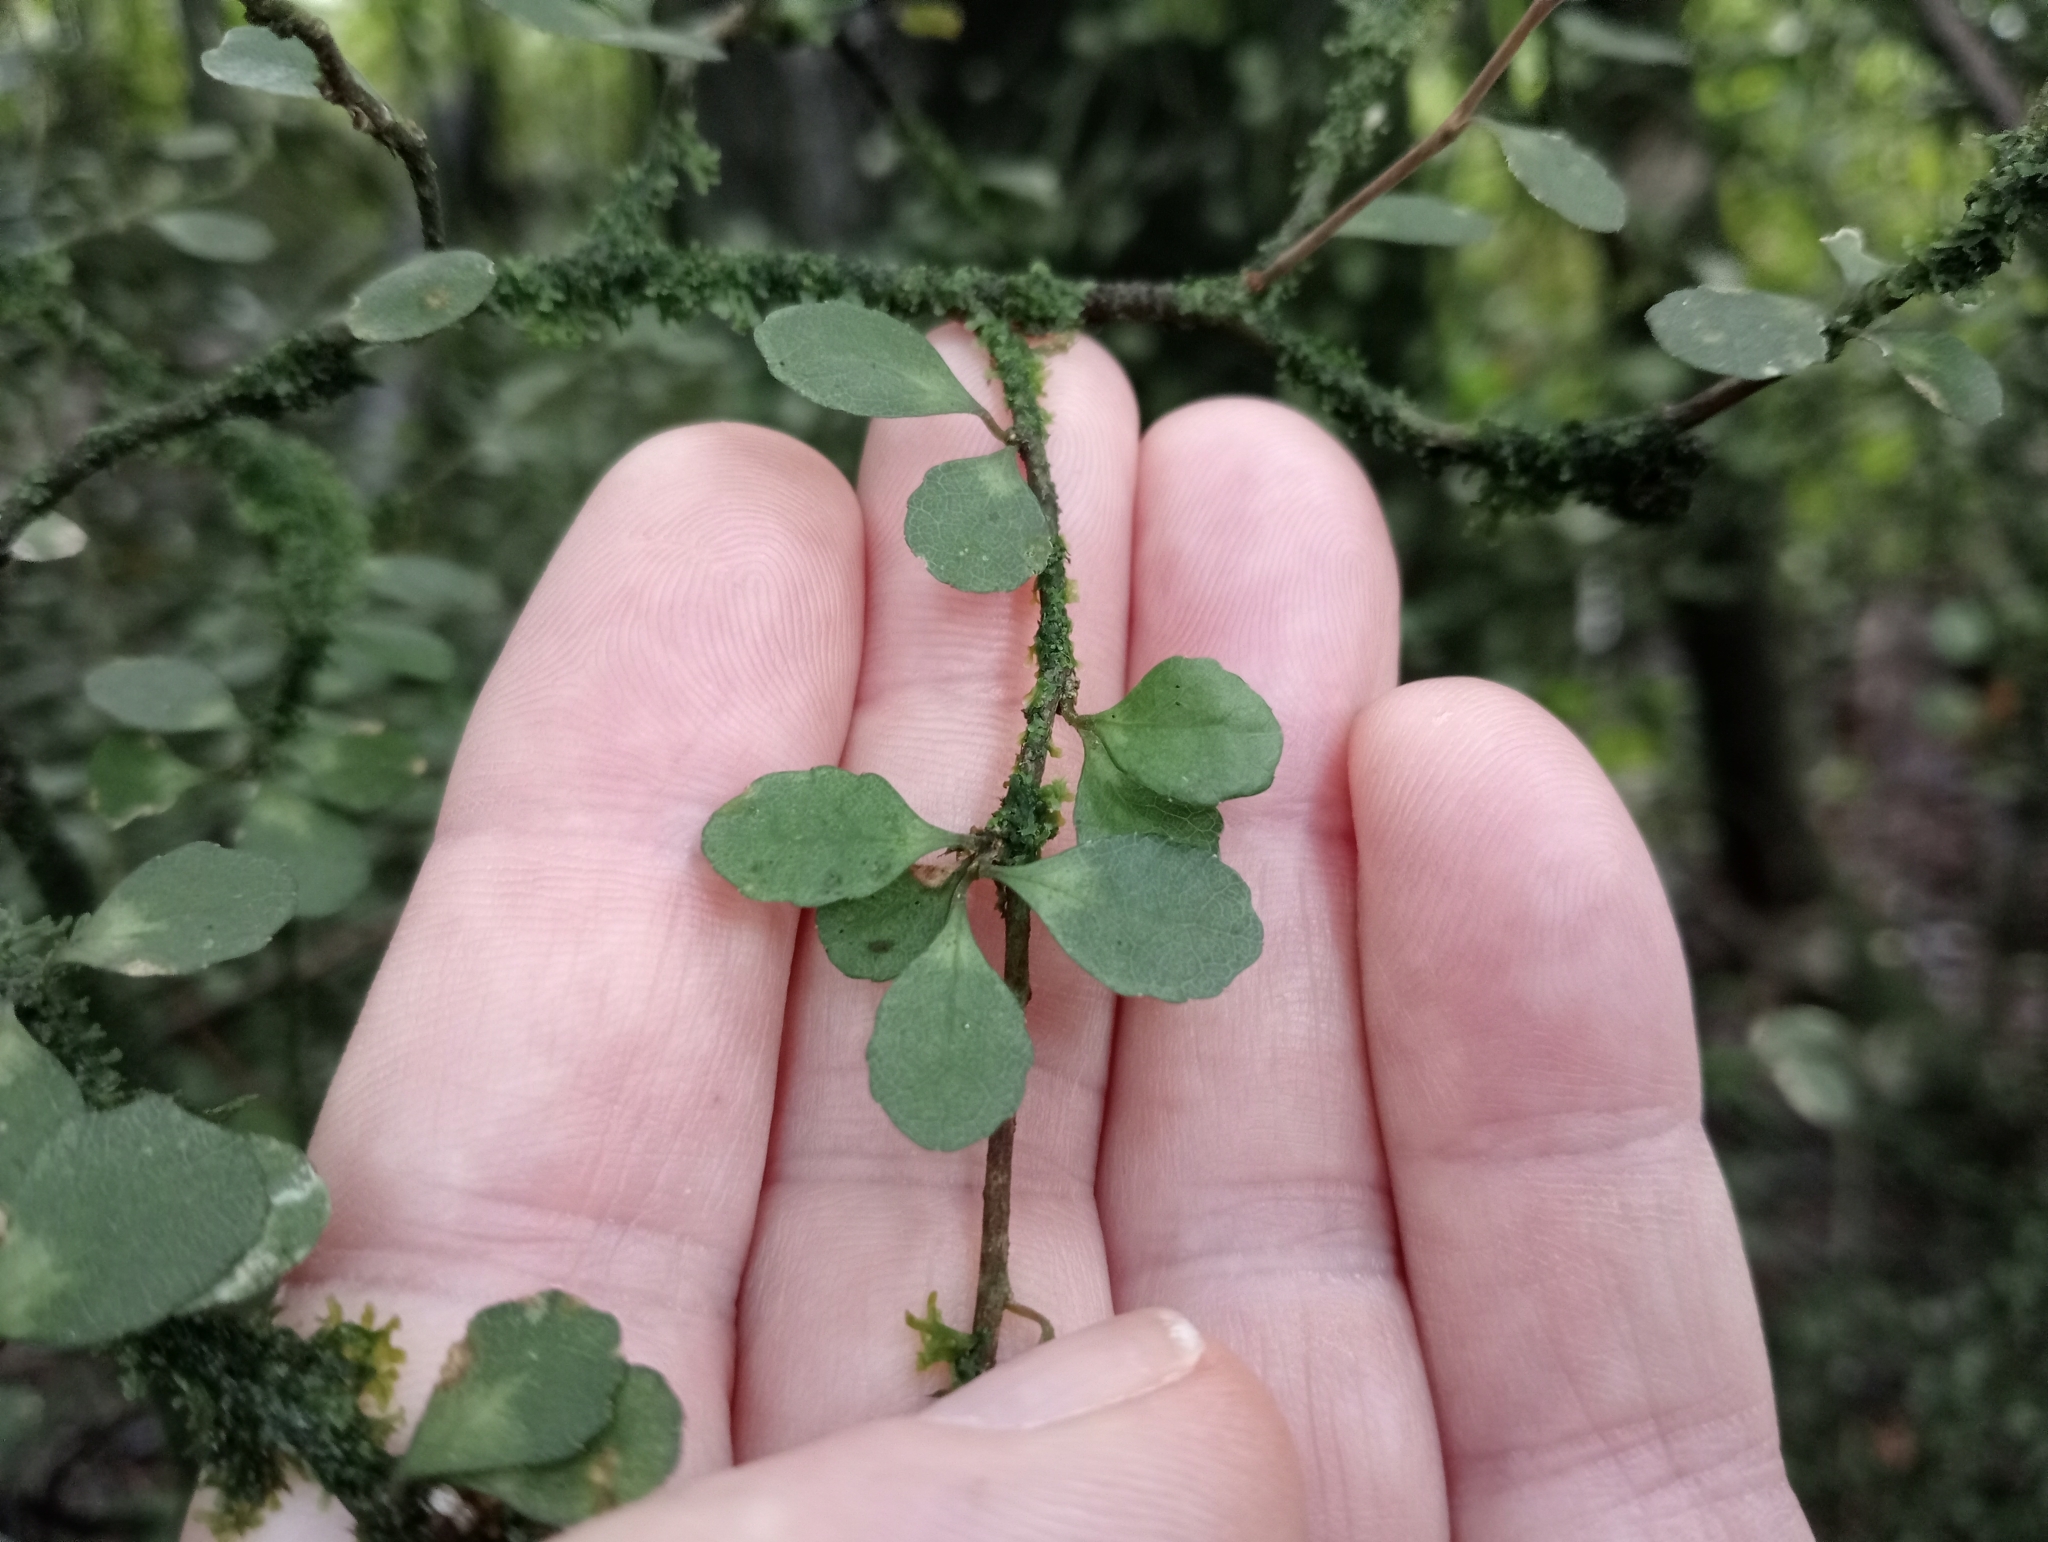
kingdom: Plantae
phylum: Tracheophyta
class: Magnoliopsida
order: Malpighiales
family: Violaceae
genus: Melicytus
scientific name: Melicytus micranthus
